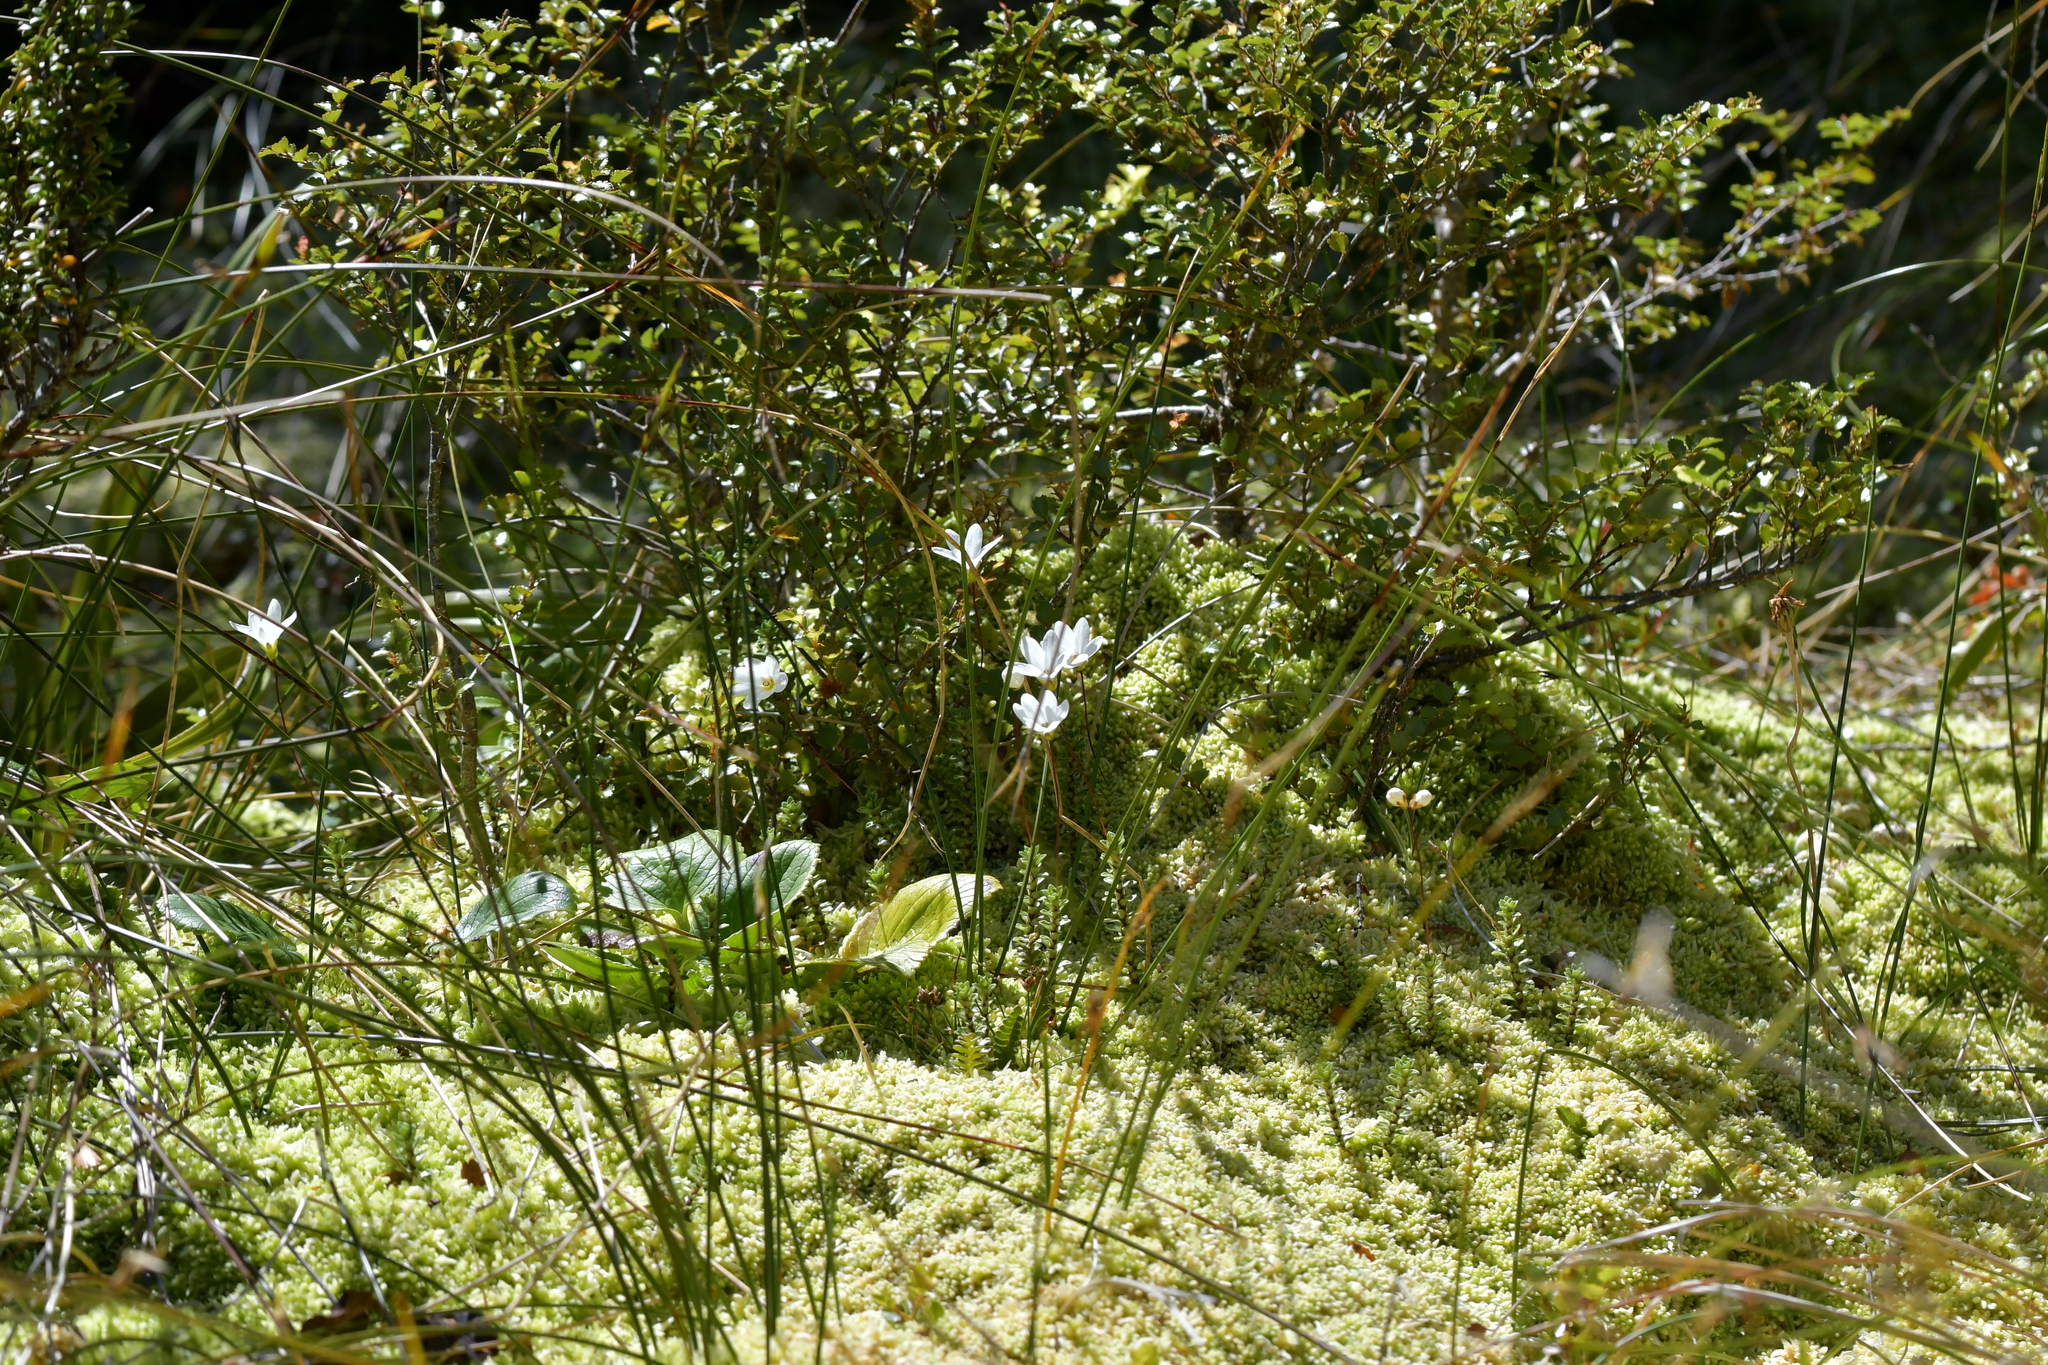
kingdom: Plantae
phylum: Tracheophyta
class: Magnoliopsida
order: Asterales
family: Stylidiaceae
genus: Forstera
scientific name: Forstera sedifolia
